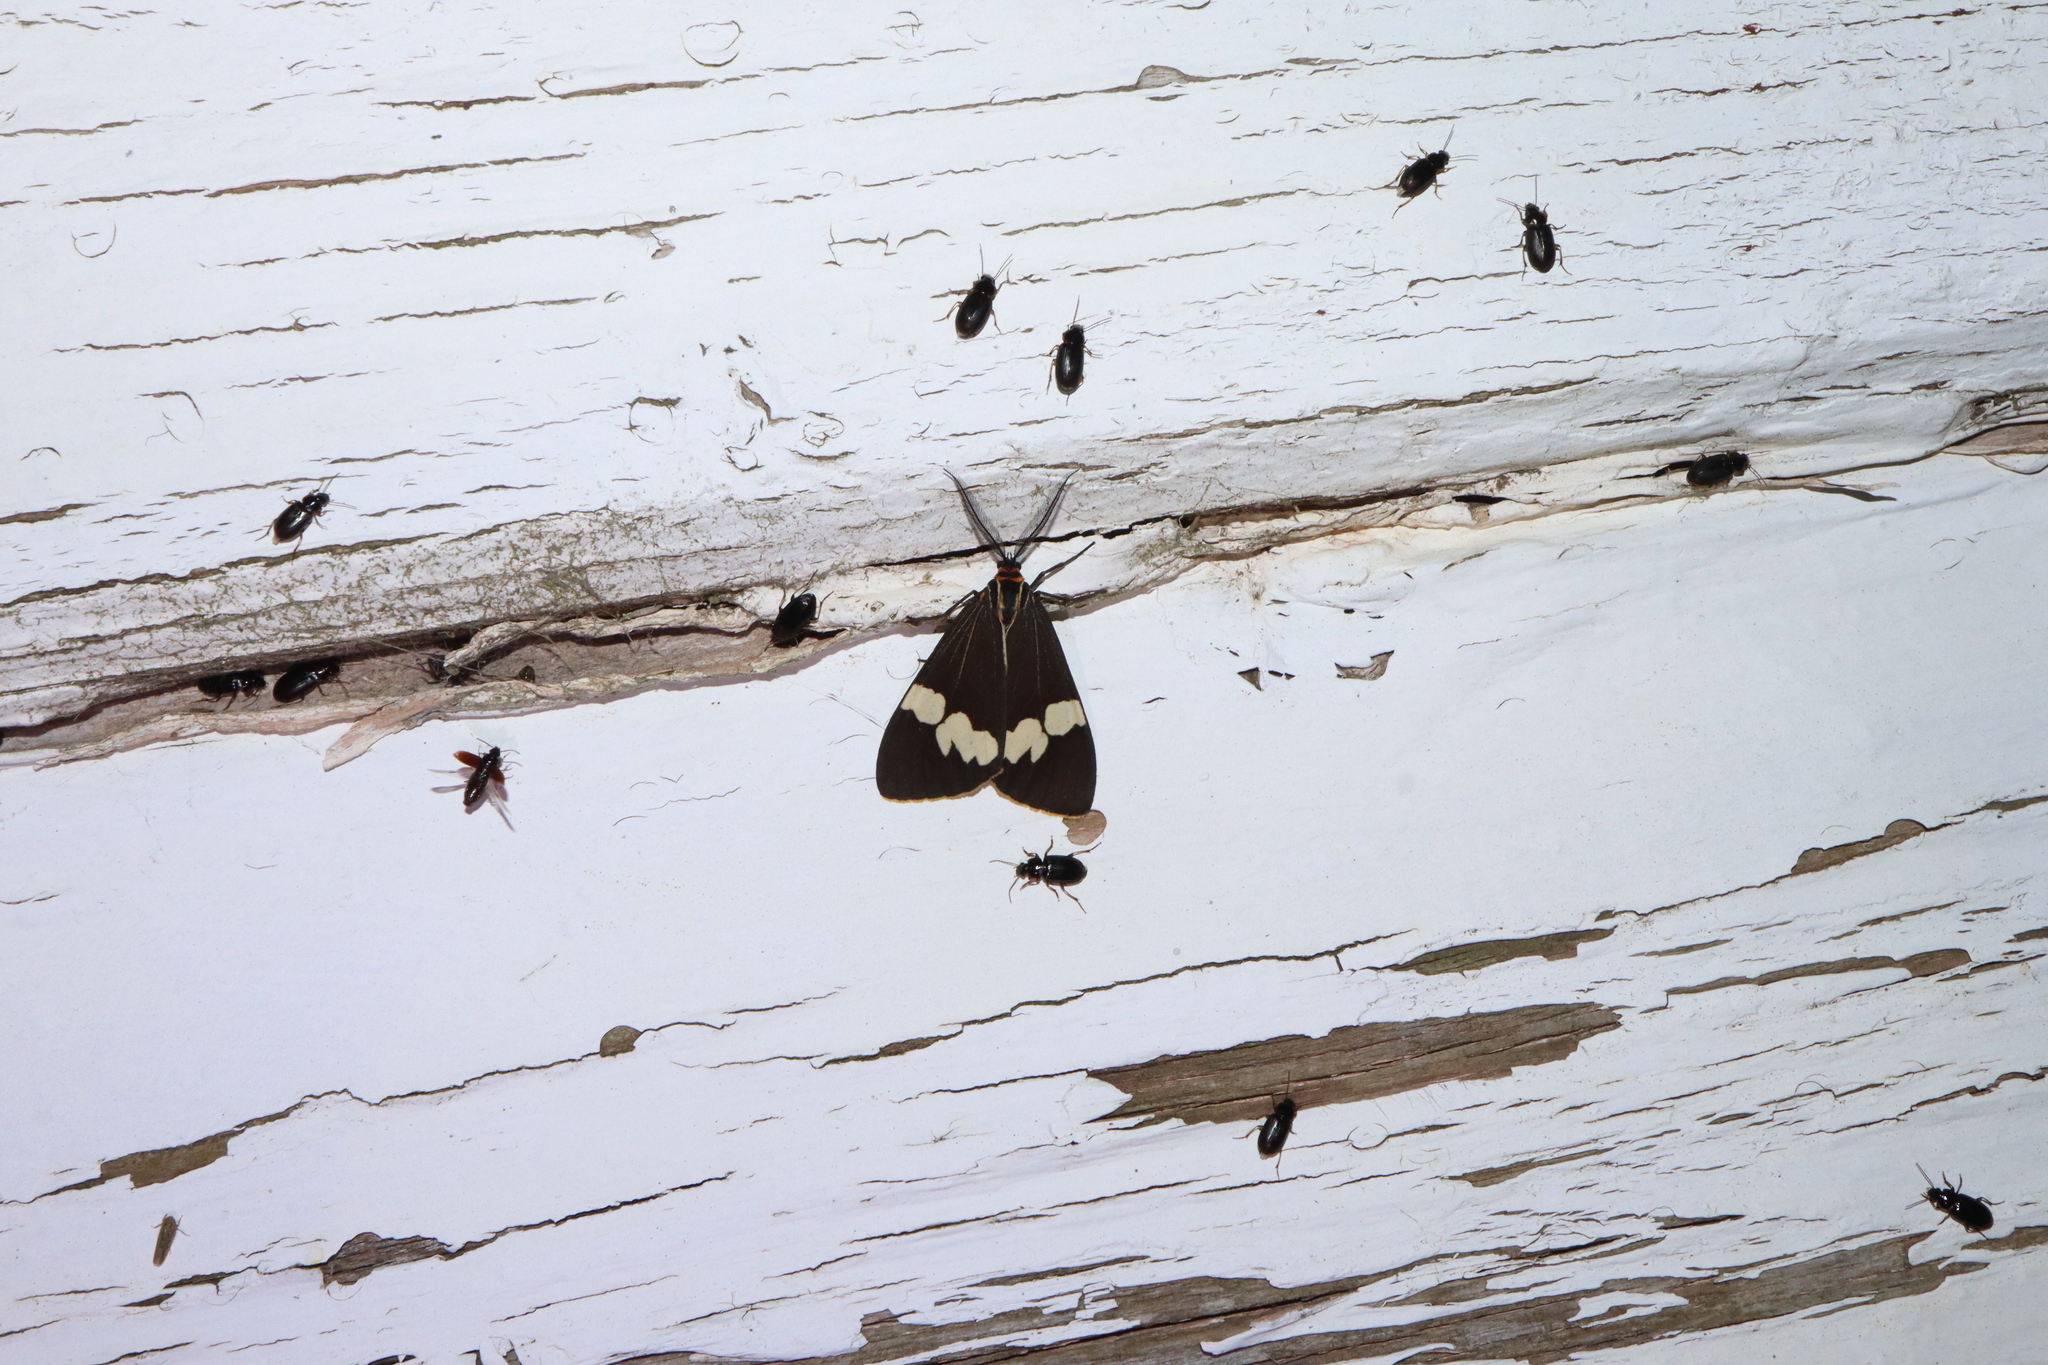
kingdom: Animalia
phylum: Arthropoda
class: Insecta
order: Lepidoptera
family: Erebidae
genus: Nyctemera
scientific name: Nyctemera amicus
